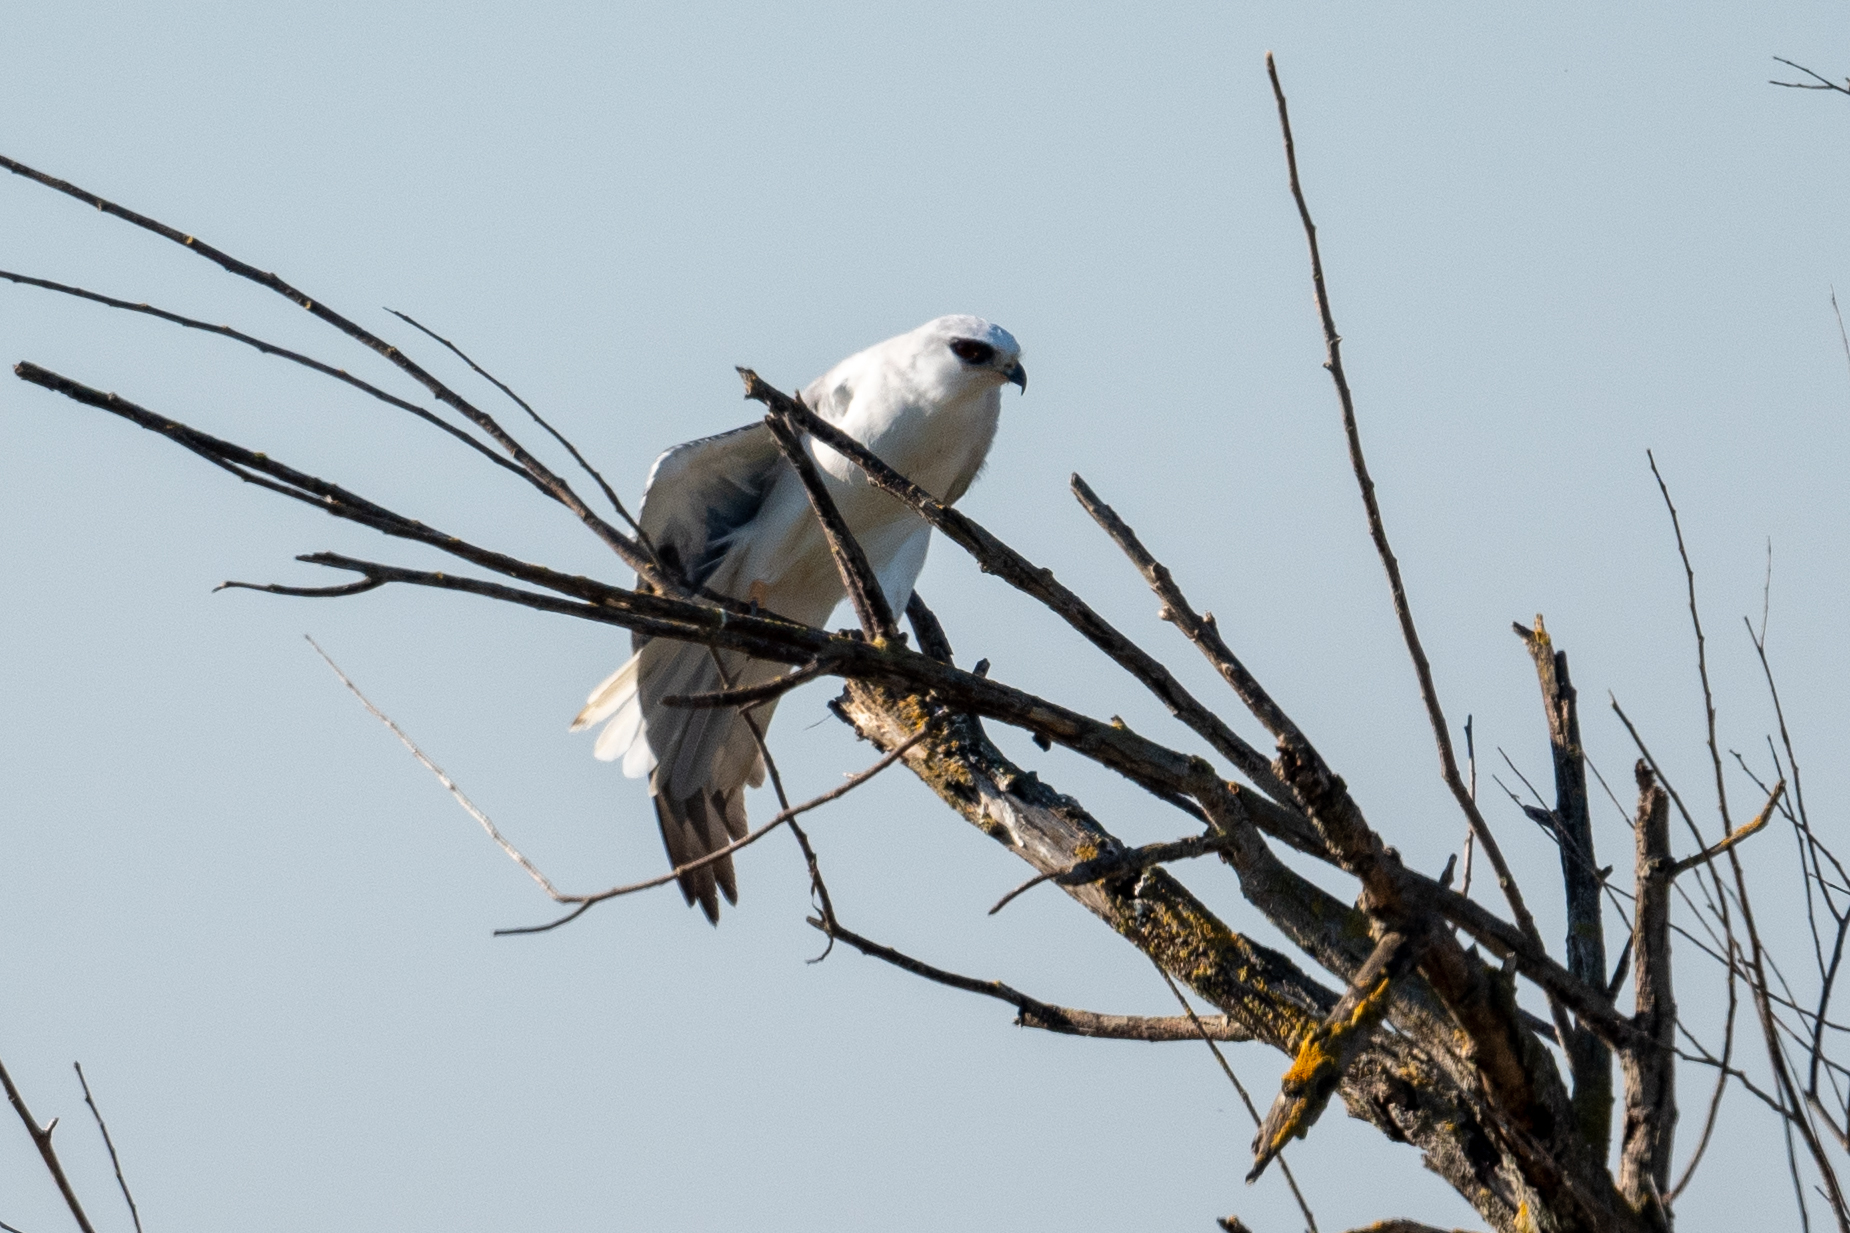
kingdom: Animalia
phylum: Chordata
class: Aves
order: Accipitriformes
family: Accipitridae
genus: Elanus
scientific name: Elanus leucurus
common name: White-tailed kite
